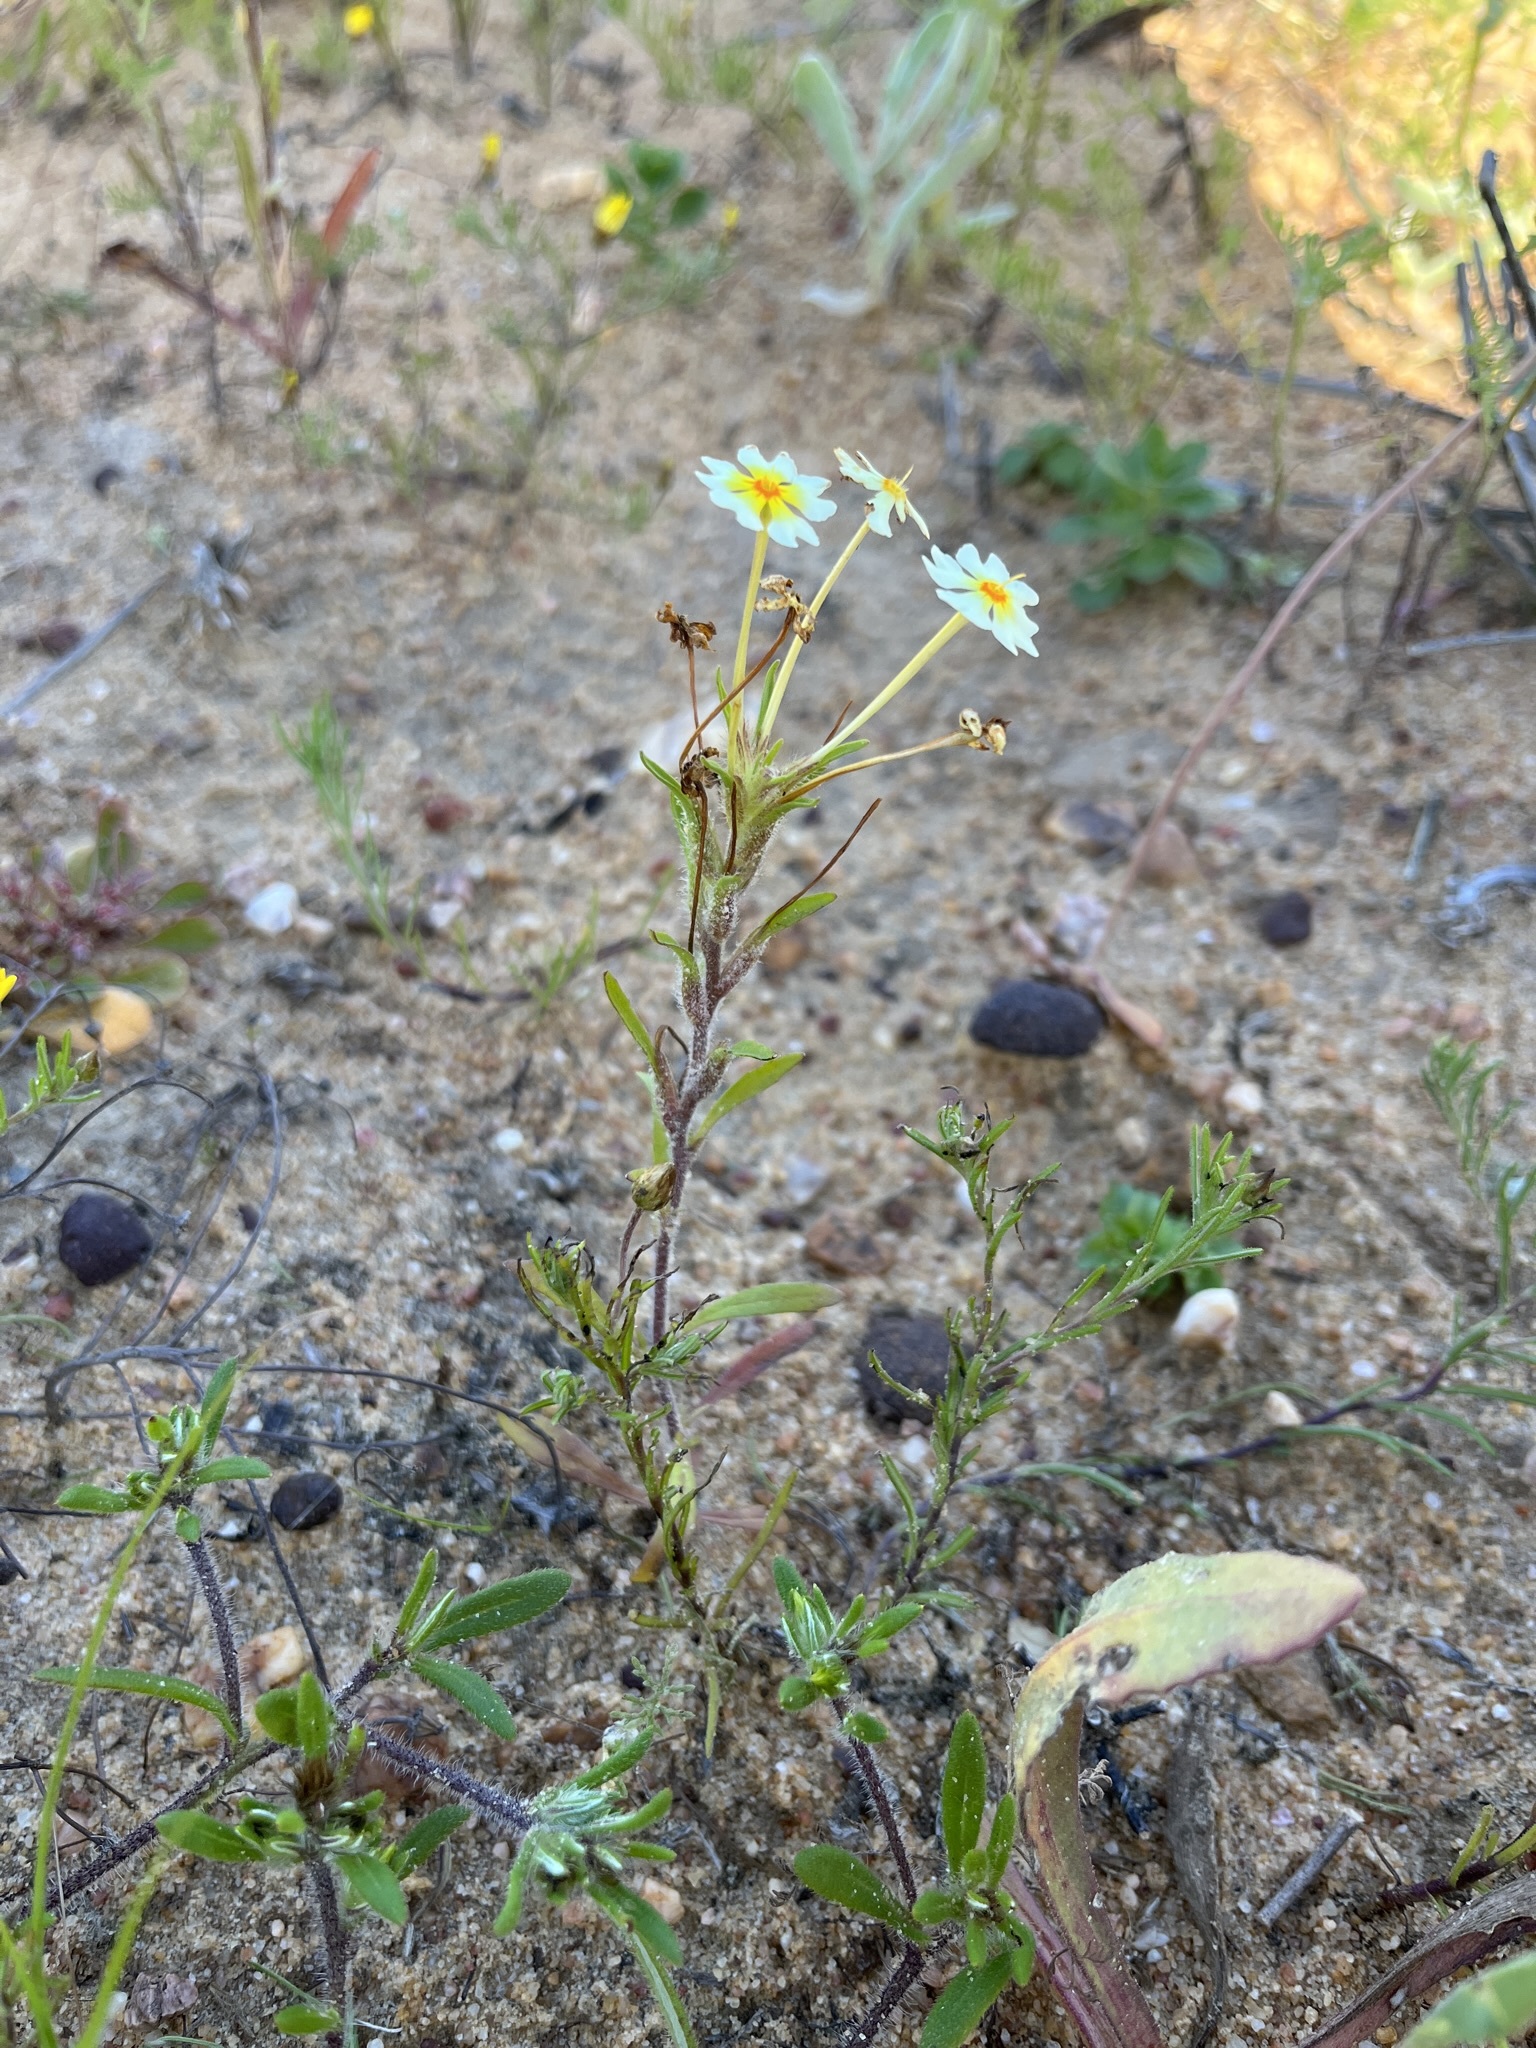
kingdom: Plantae
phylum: Tracheophyta
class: Magnoliopsida
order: Lamiales
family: Scrophulariaceae
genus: Zaluzianskya
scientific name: Zaluzianskya affinis
